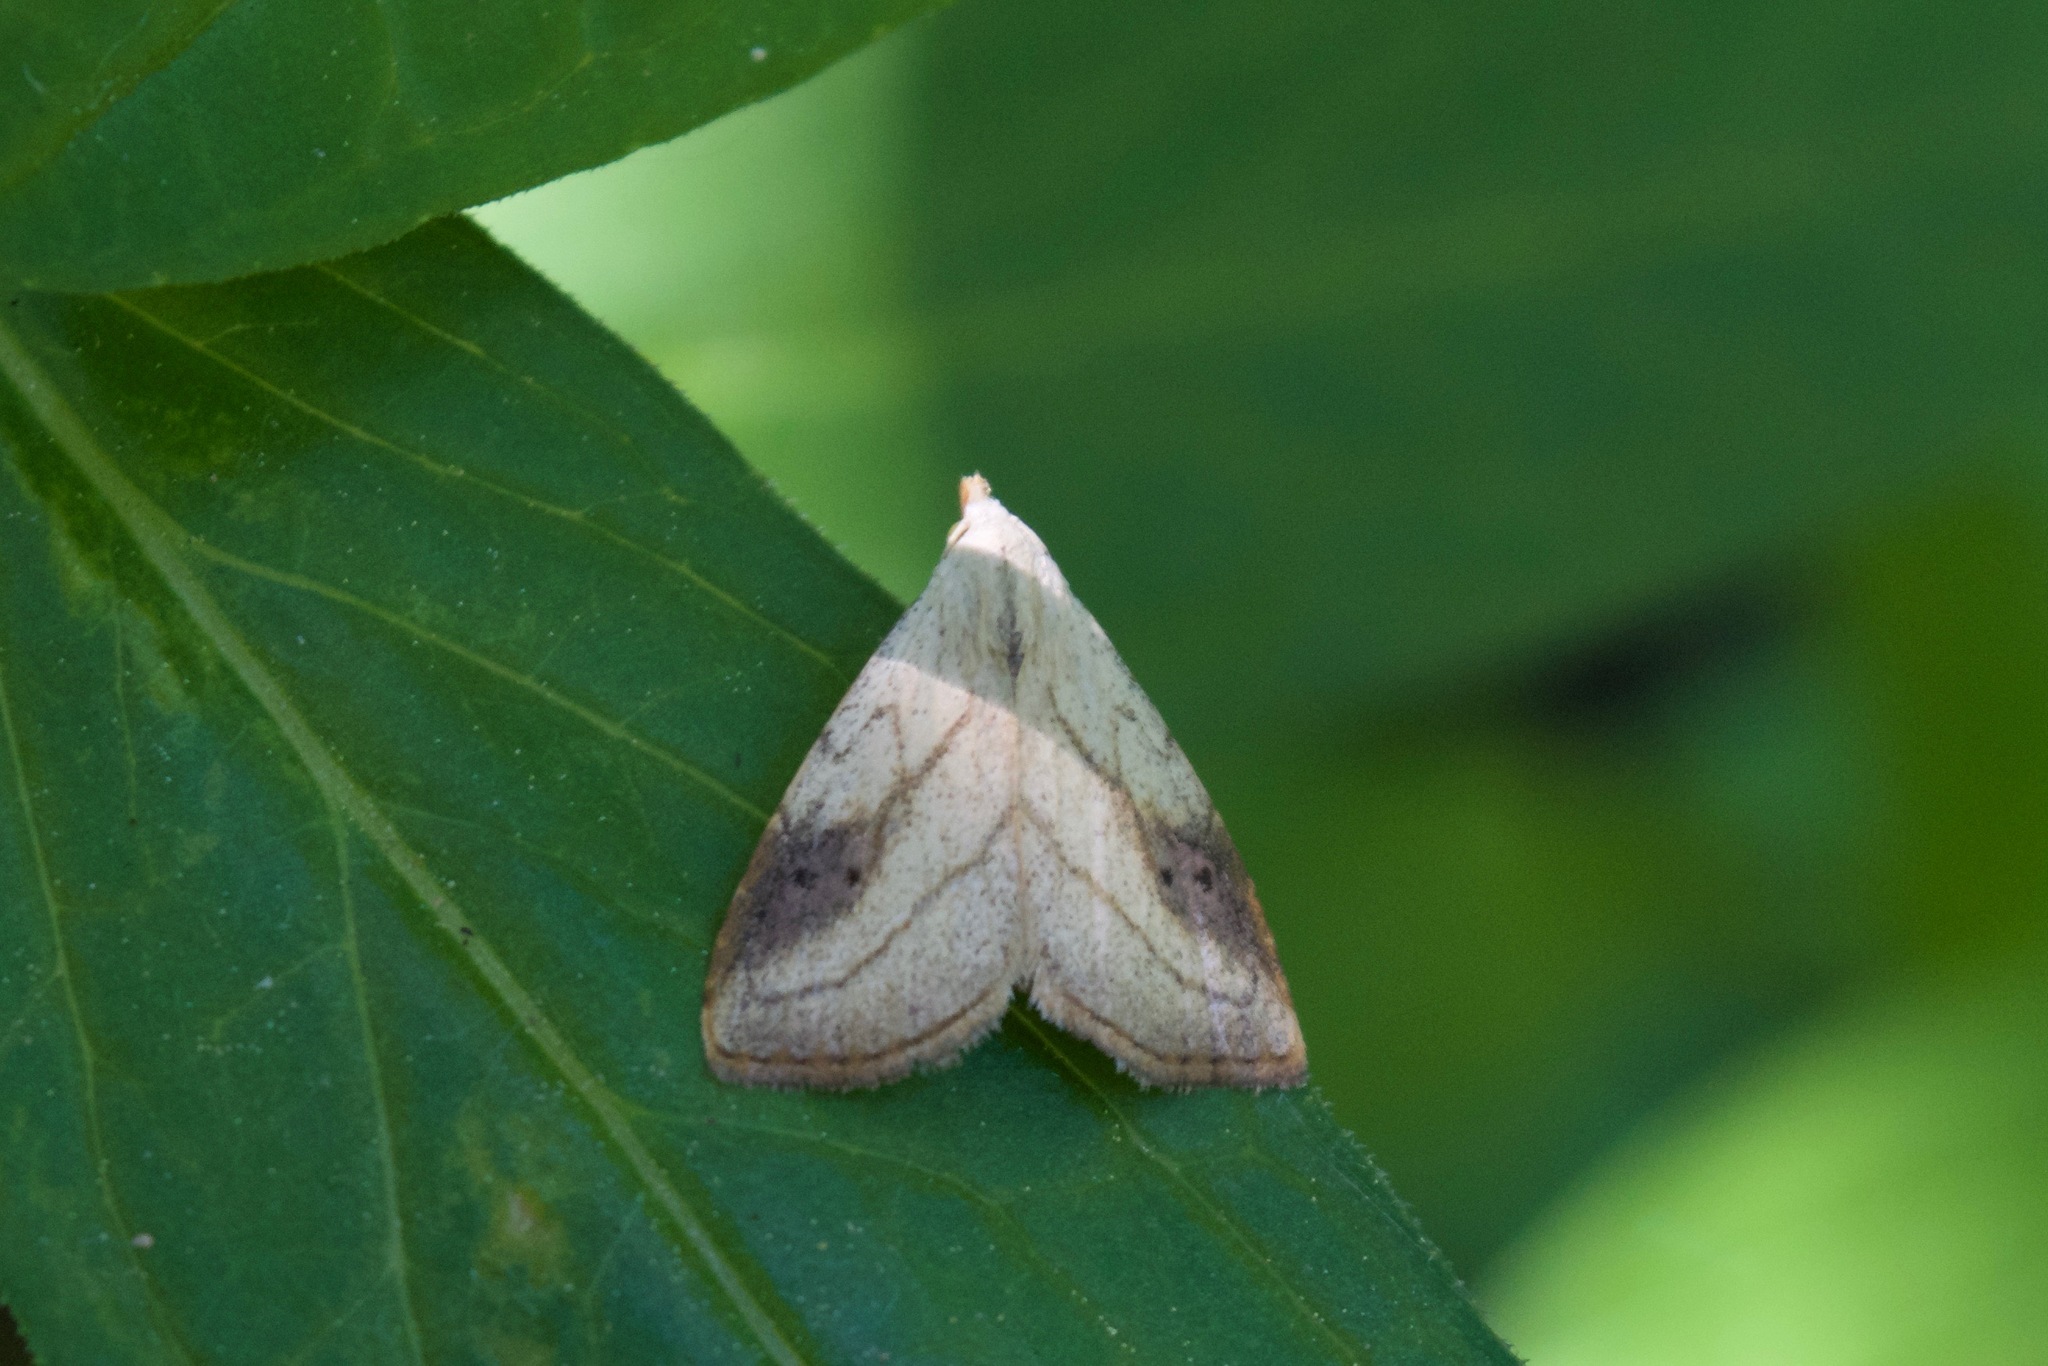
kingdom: Animalia
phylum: Arthropoda
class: Insecta
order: Lepidoptera
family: Erebidae
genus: Rivula
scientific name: Rivula propinqualis
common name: Spotted grass moth
